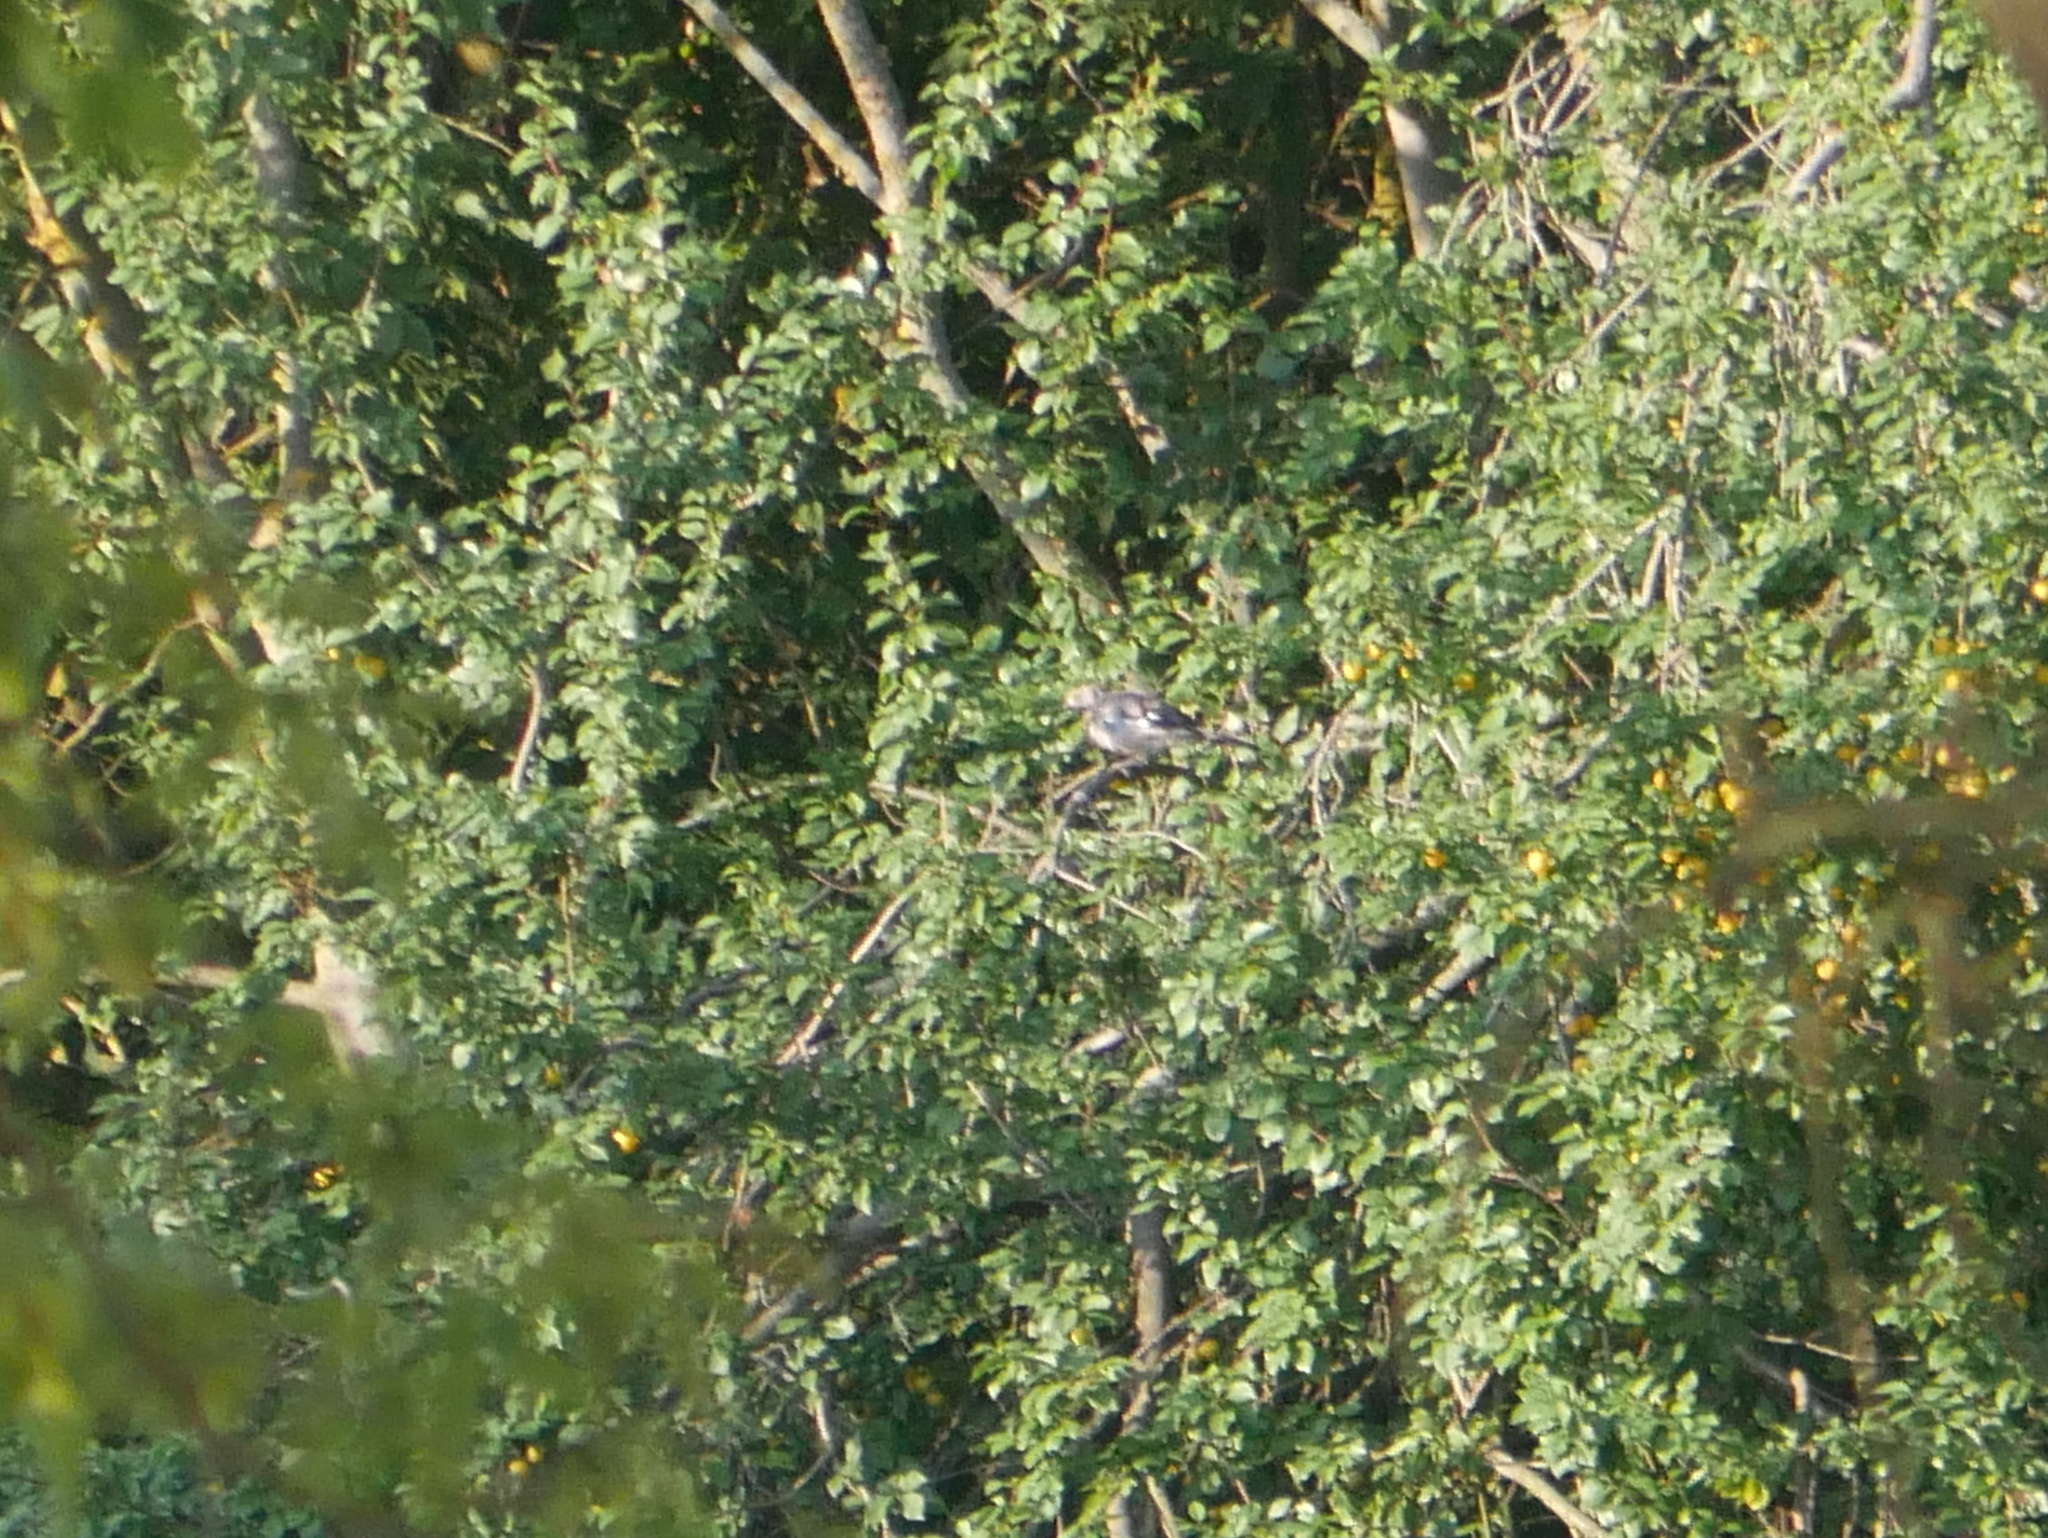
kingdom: Animalia
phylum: Chordata
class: Aves
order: Passeriformes
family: Corvidae
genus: Garrulus
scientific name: Garrulus glandarius
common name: Eurasian jay
